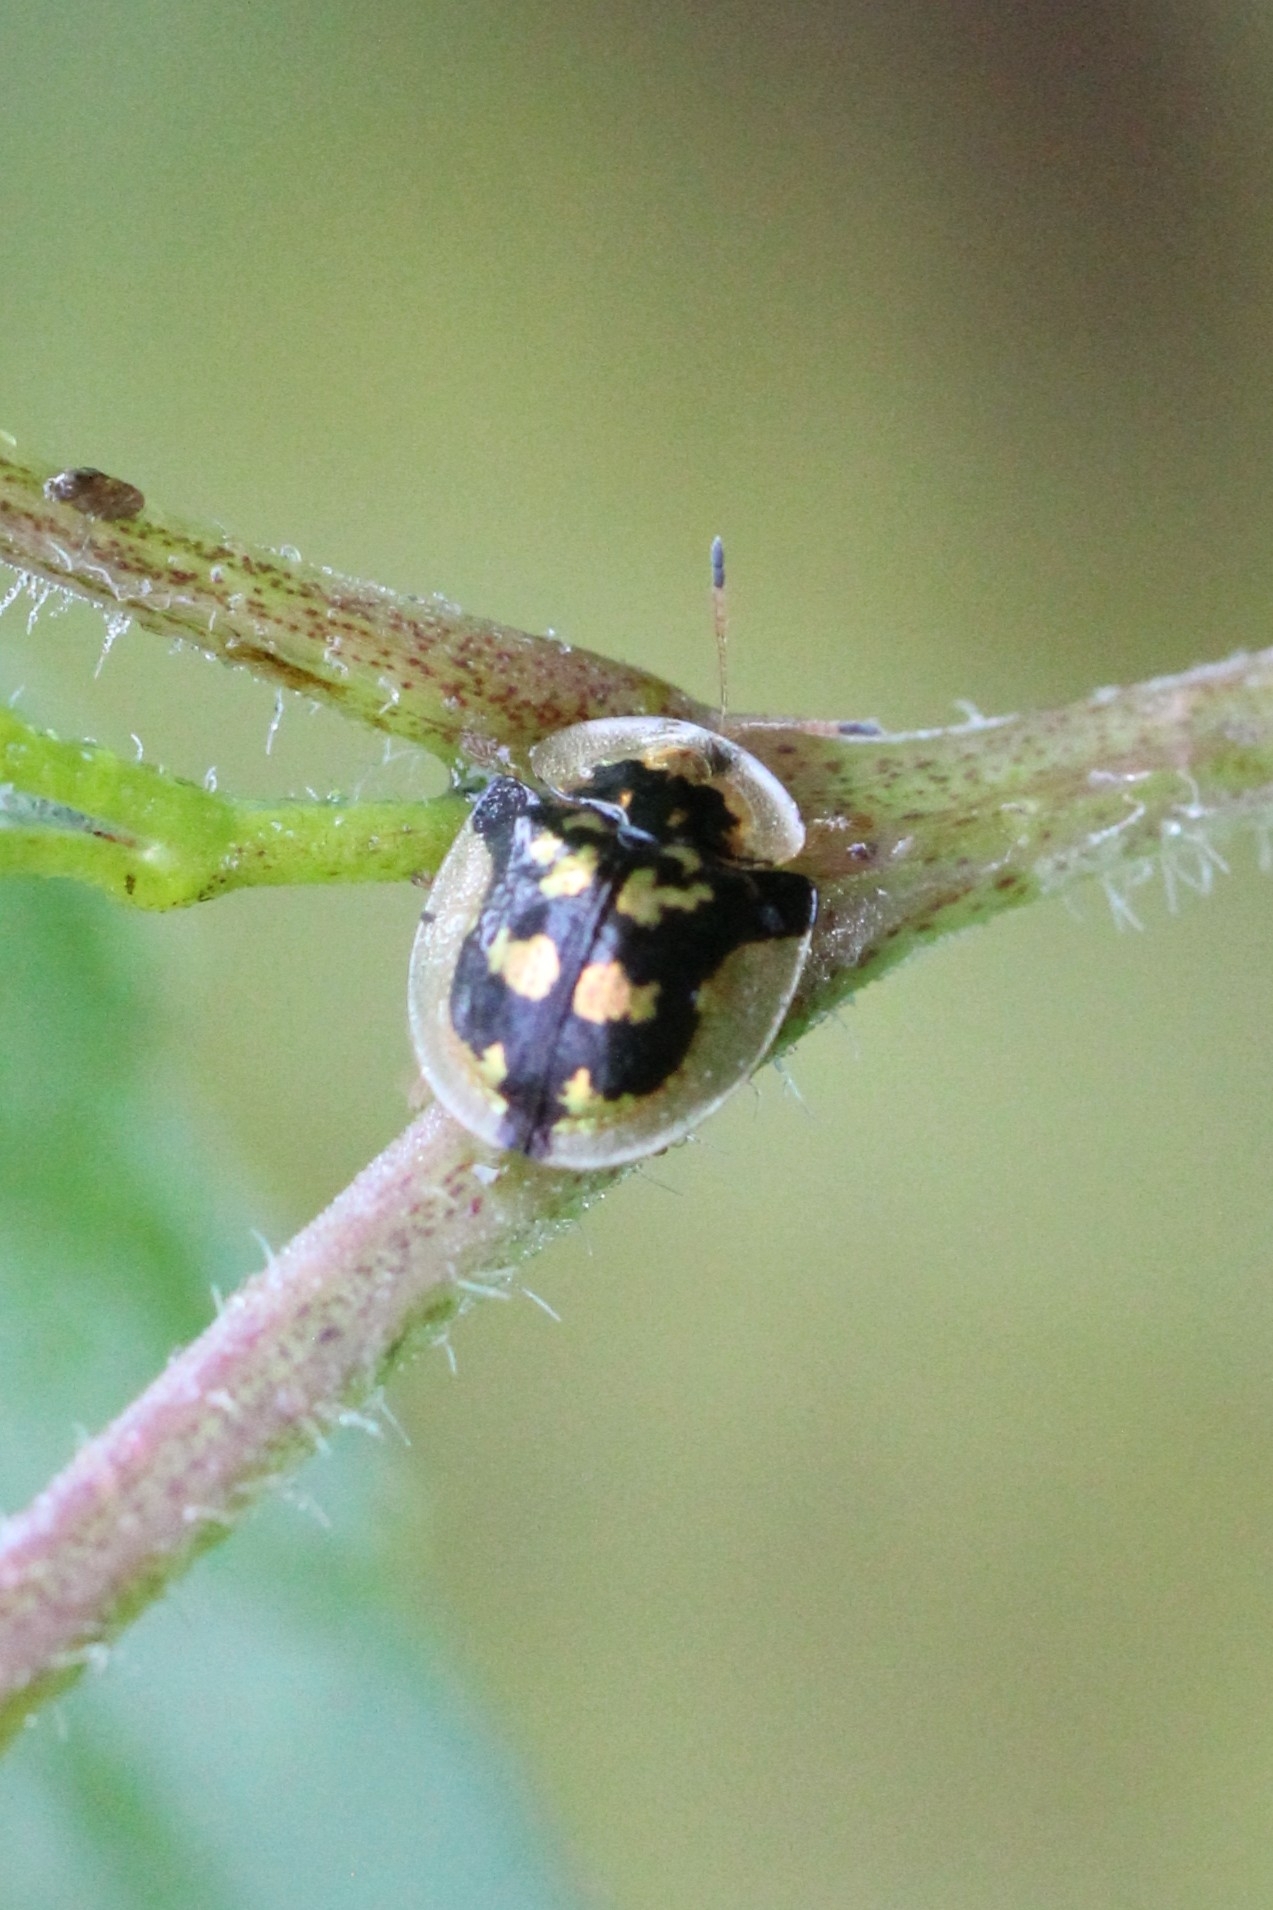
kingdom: Animalia
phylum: Arthropoda
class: Insecta
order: Coleoptera
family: Chrysomelidae
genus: Deloyala
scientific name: Deloyala guttata
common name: Mottled tortoise beetle
